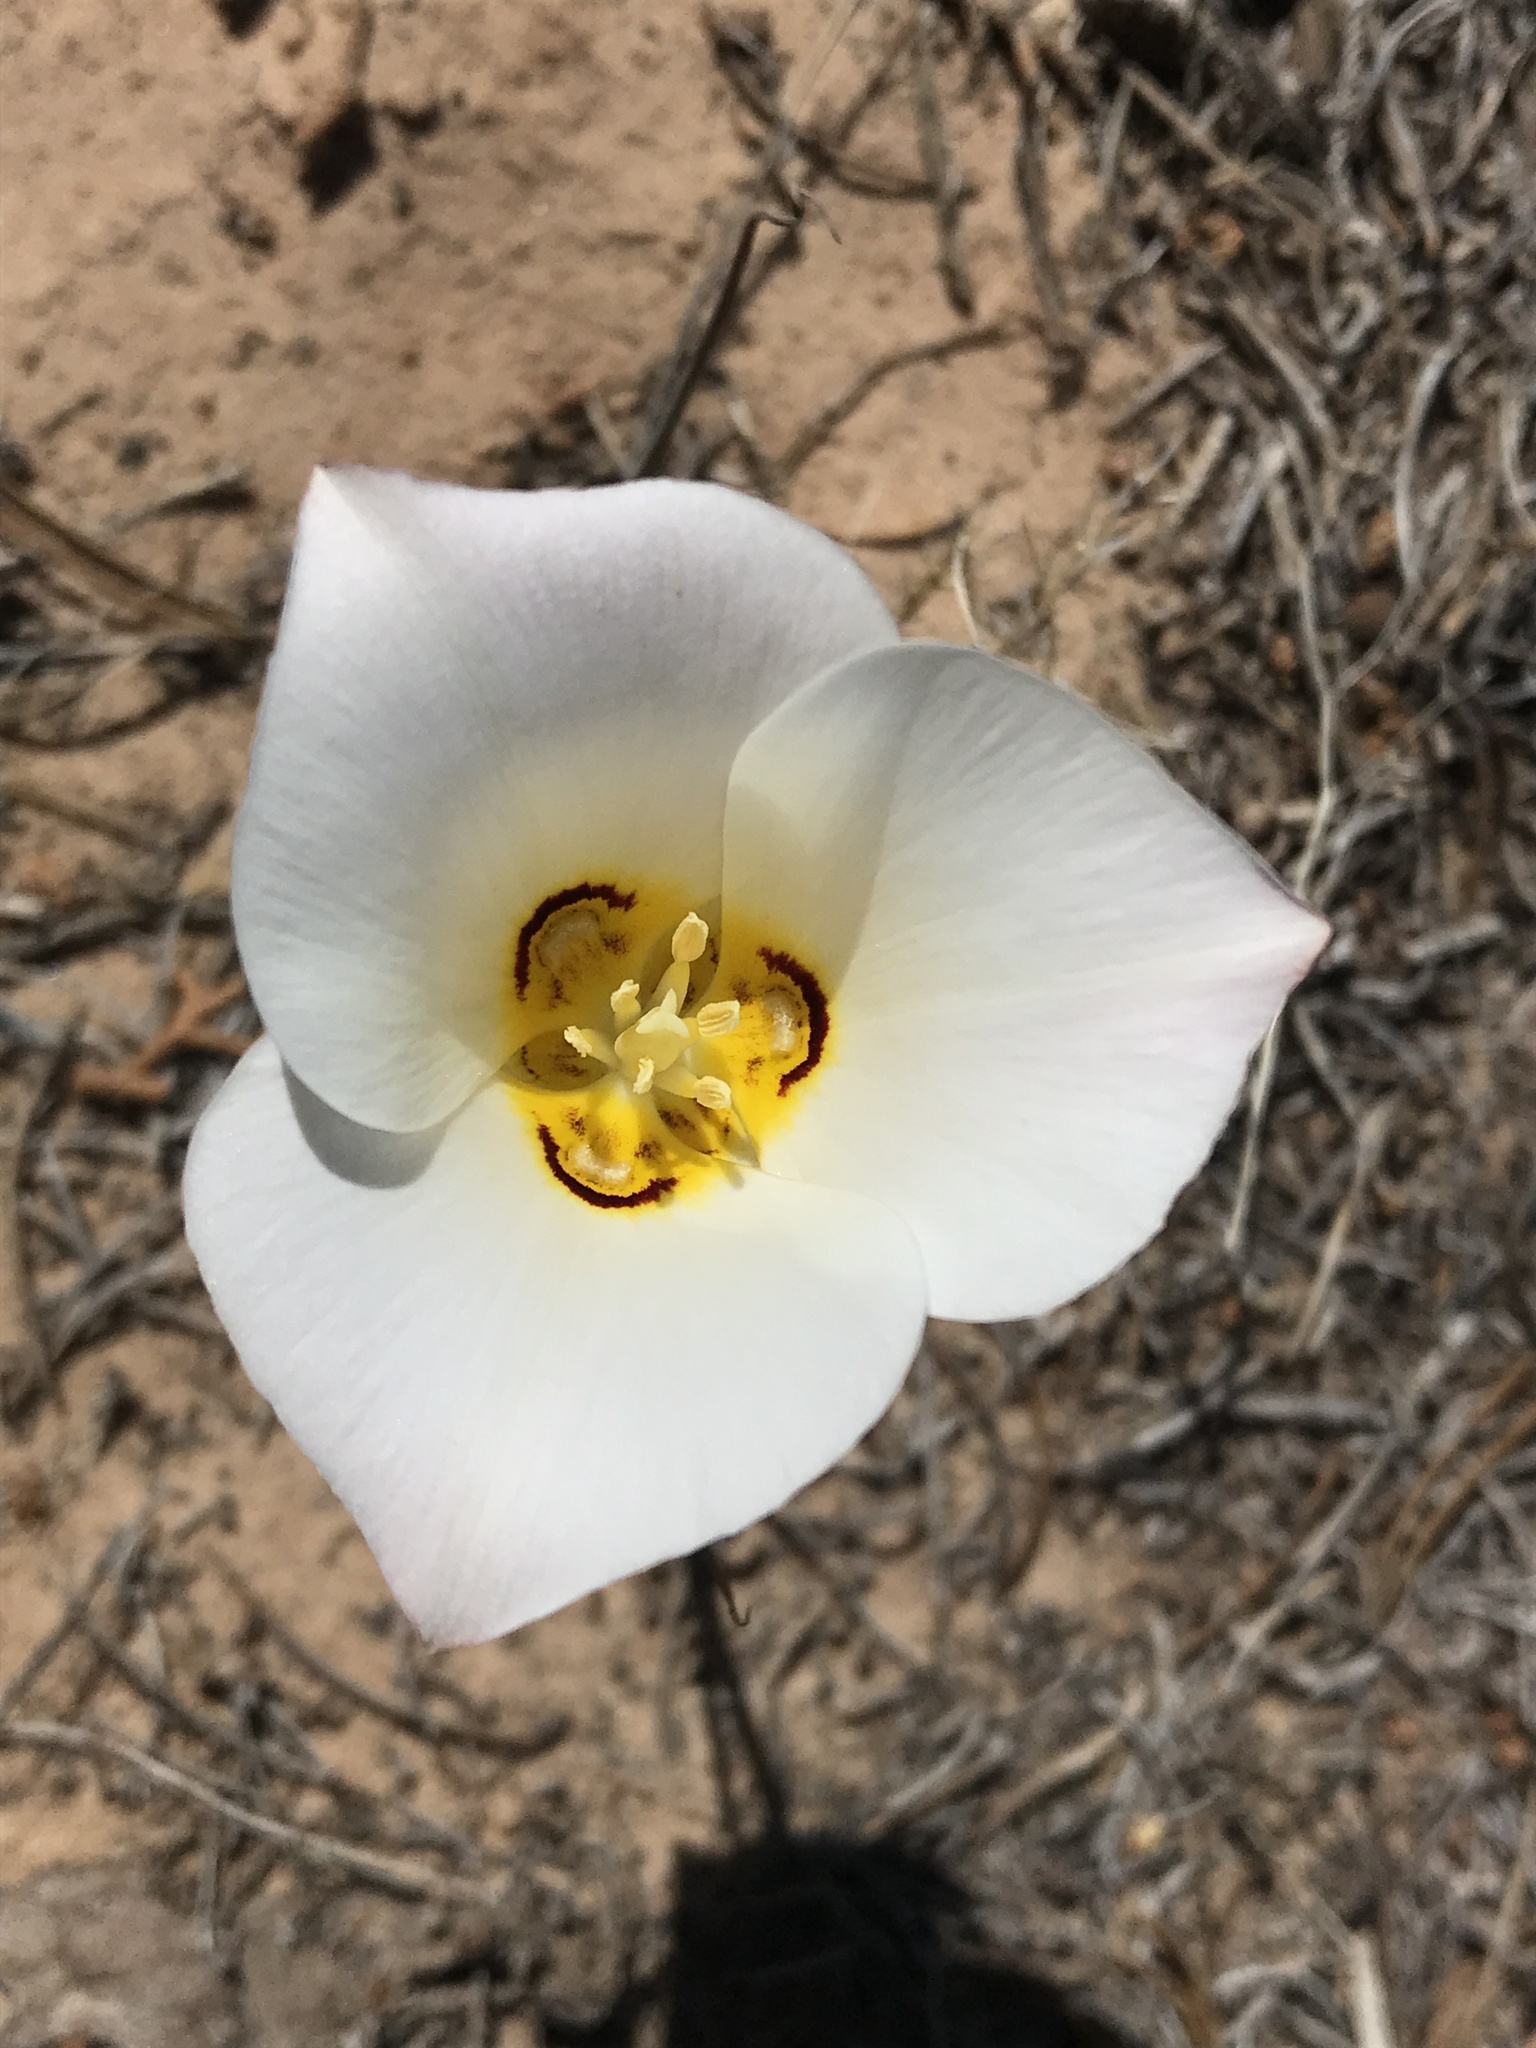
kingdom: Plantae
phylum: Tracheophyta
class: Liliopsida
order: Liliales
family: Liliaceae
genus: Calochortus
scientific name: Calochortus nuttallii
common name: Sego-lily
